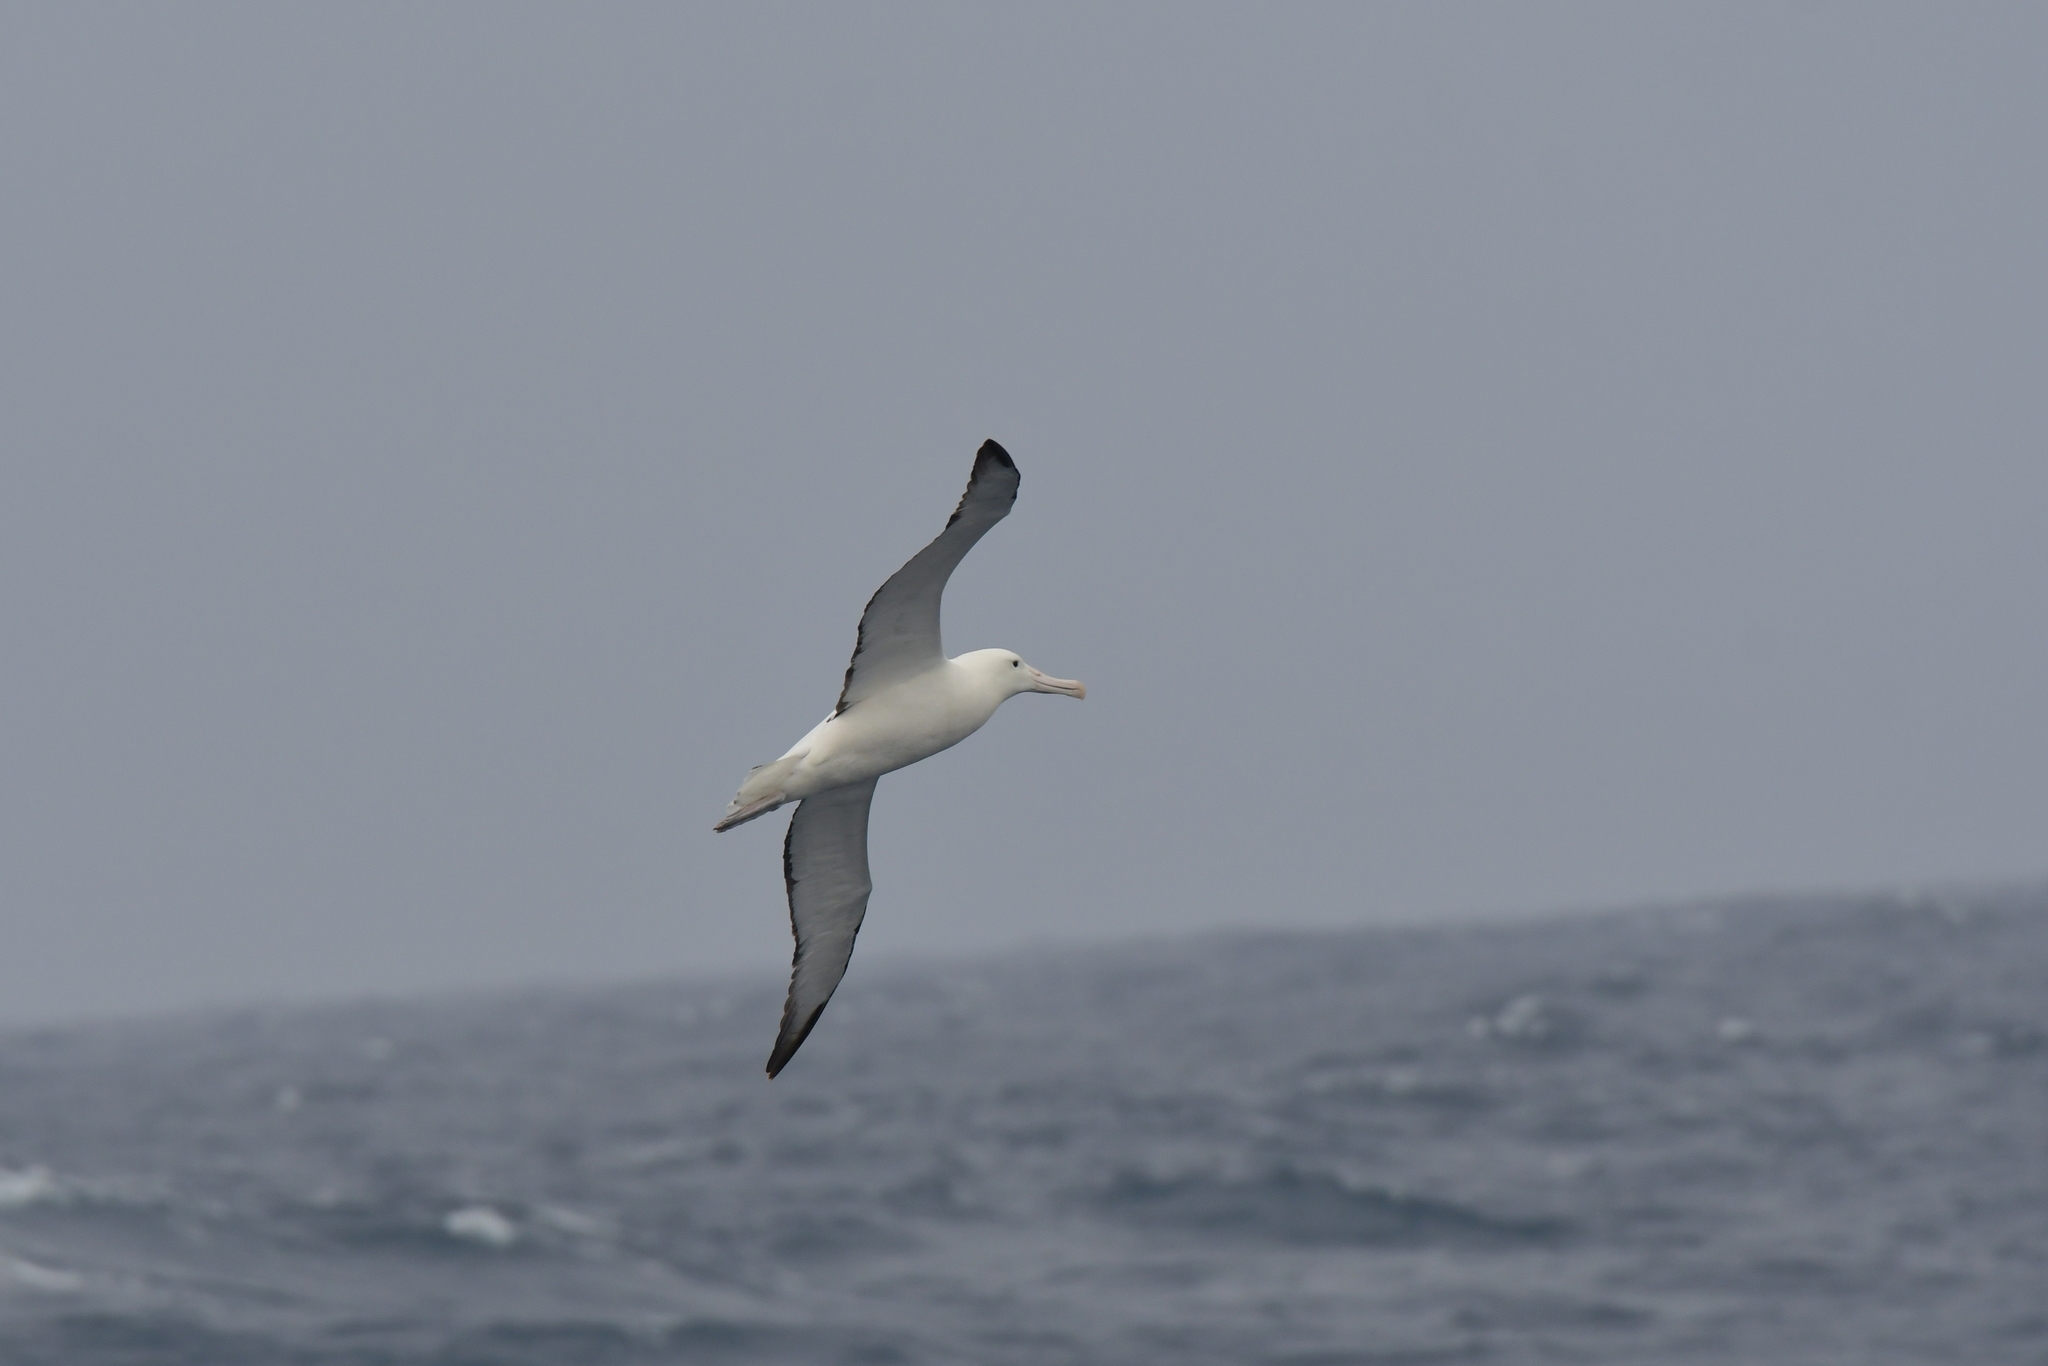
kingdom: Animalia
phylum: Chordata
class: Aves
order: Procellariiformes
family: Diomedeidae
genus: Diomedea
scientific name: Diomedea epomophora
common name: Southern royal albatross
